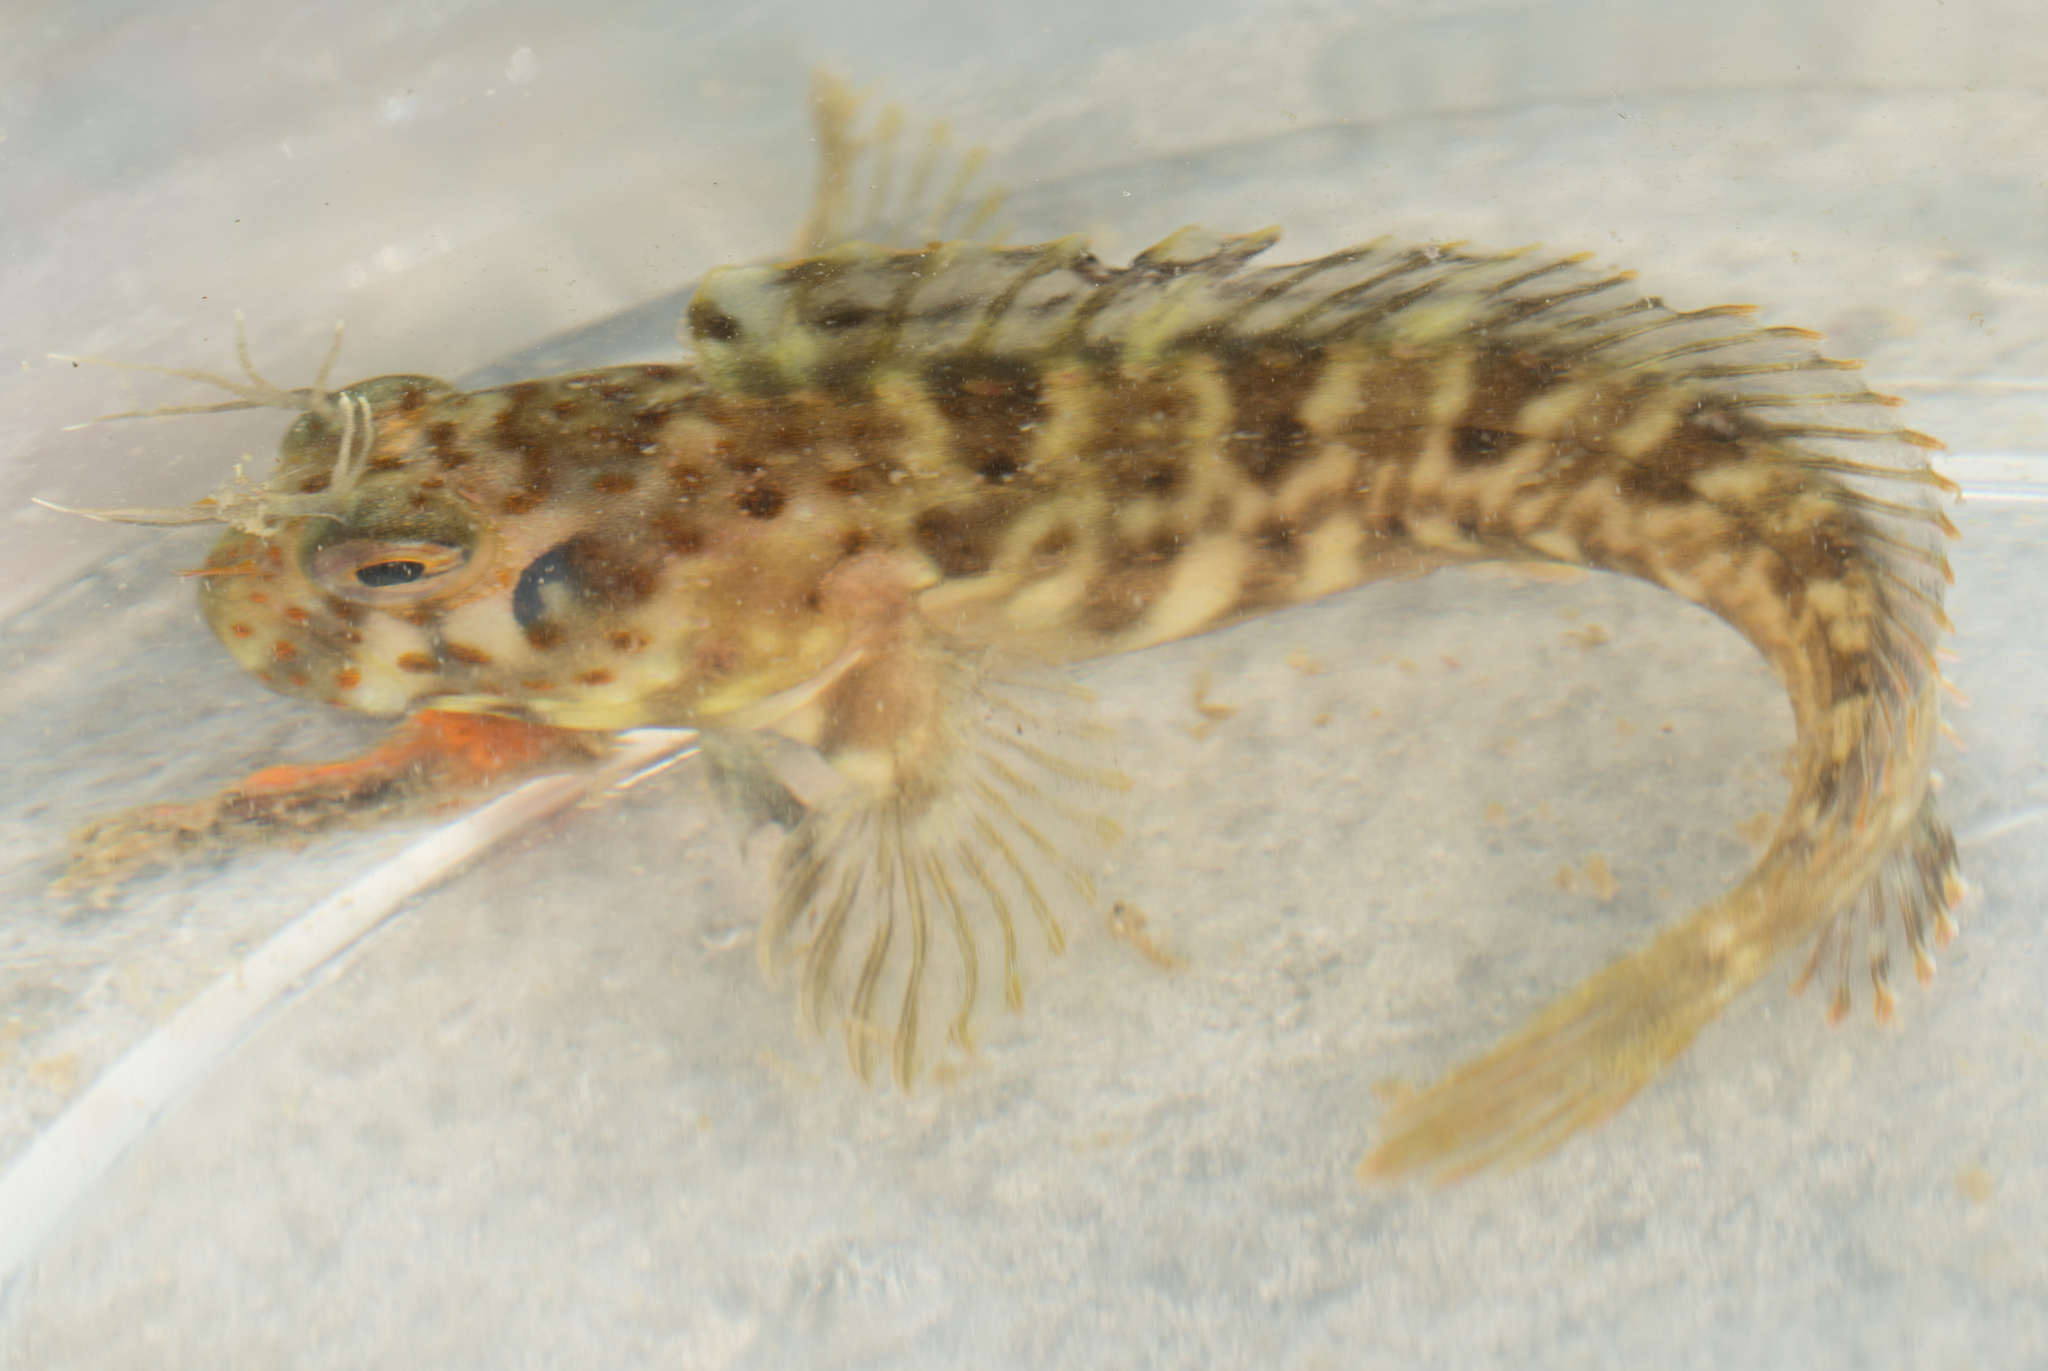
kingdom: Animalia
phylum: Chordata
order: Perciformes
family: Blenniidae
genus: Hypsoblennius
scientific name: Hypsoblennius jenkinsi
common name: Mussel blenny
